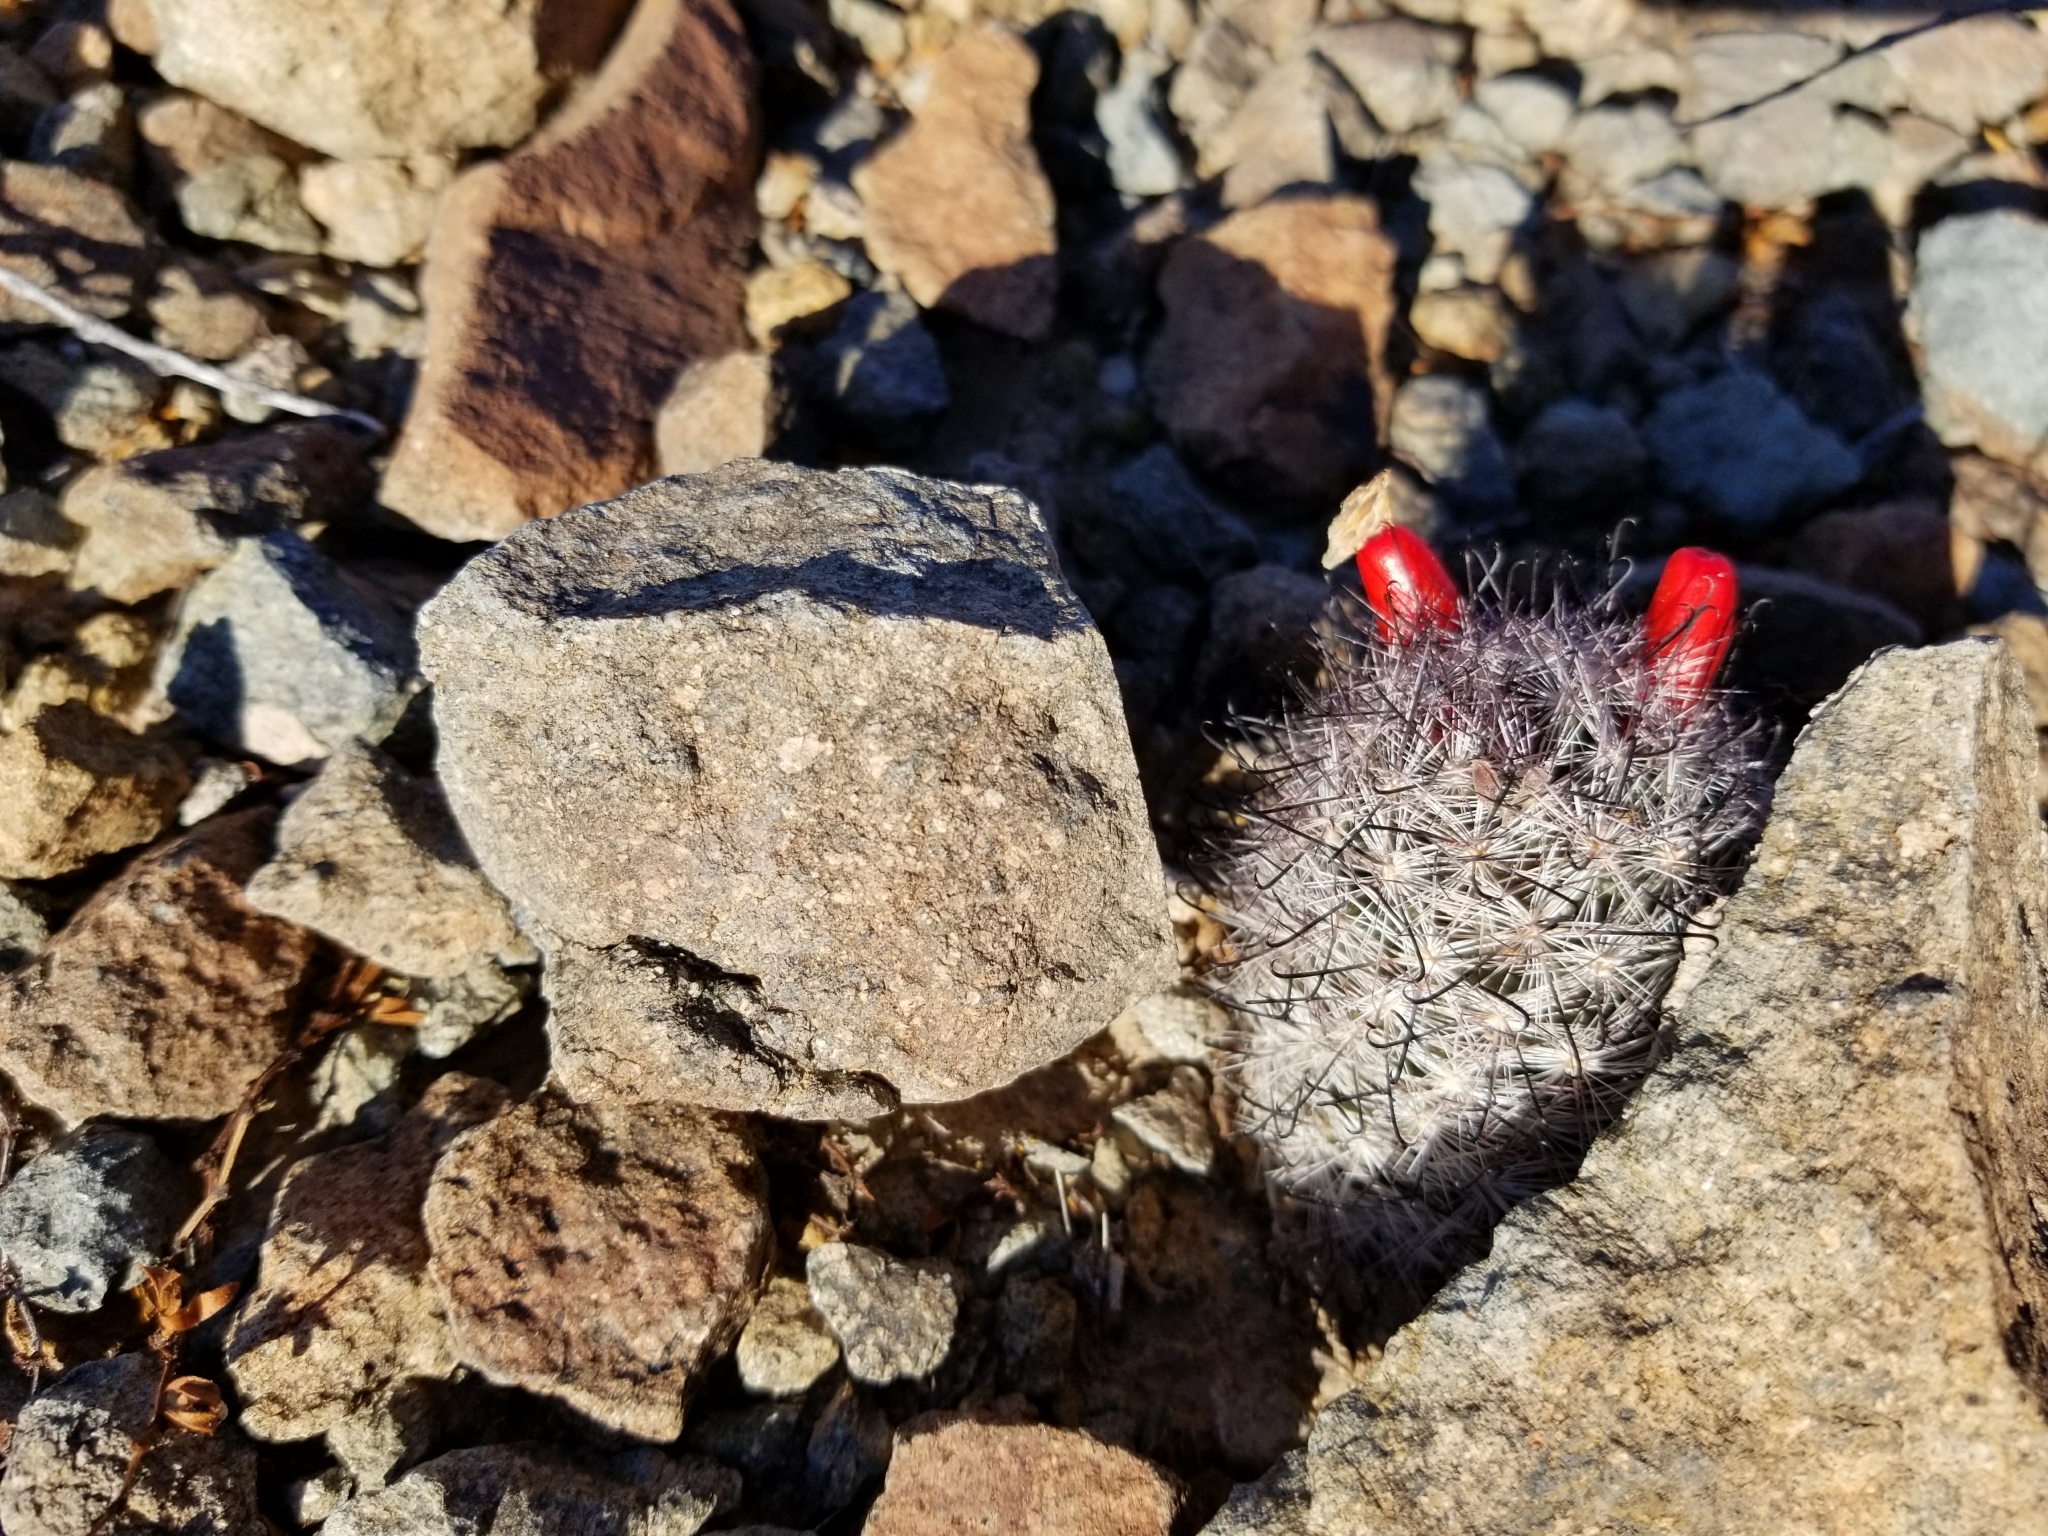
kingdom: Plantae
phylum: Tracheophyta
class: Magnoliopsida
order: Caryophyllales
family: Cactaceae
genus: Cochemiea
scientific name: Cochemiea tetrancistra
